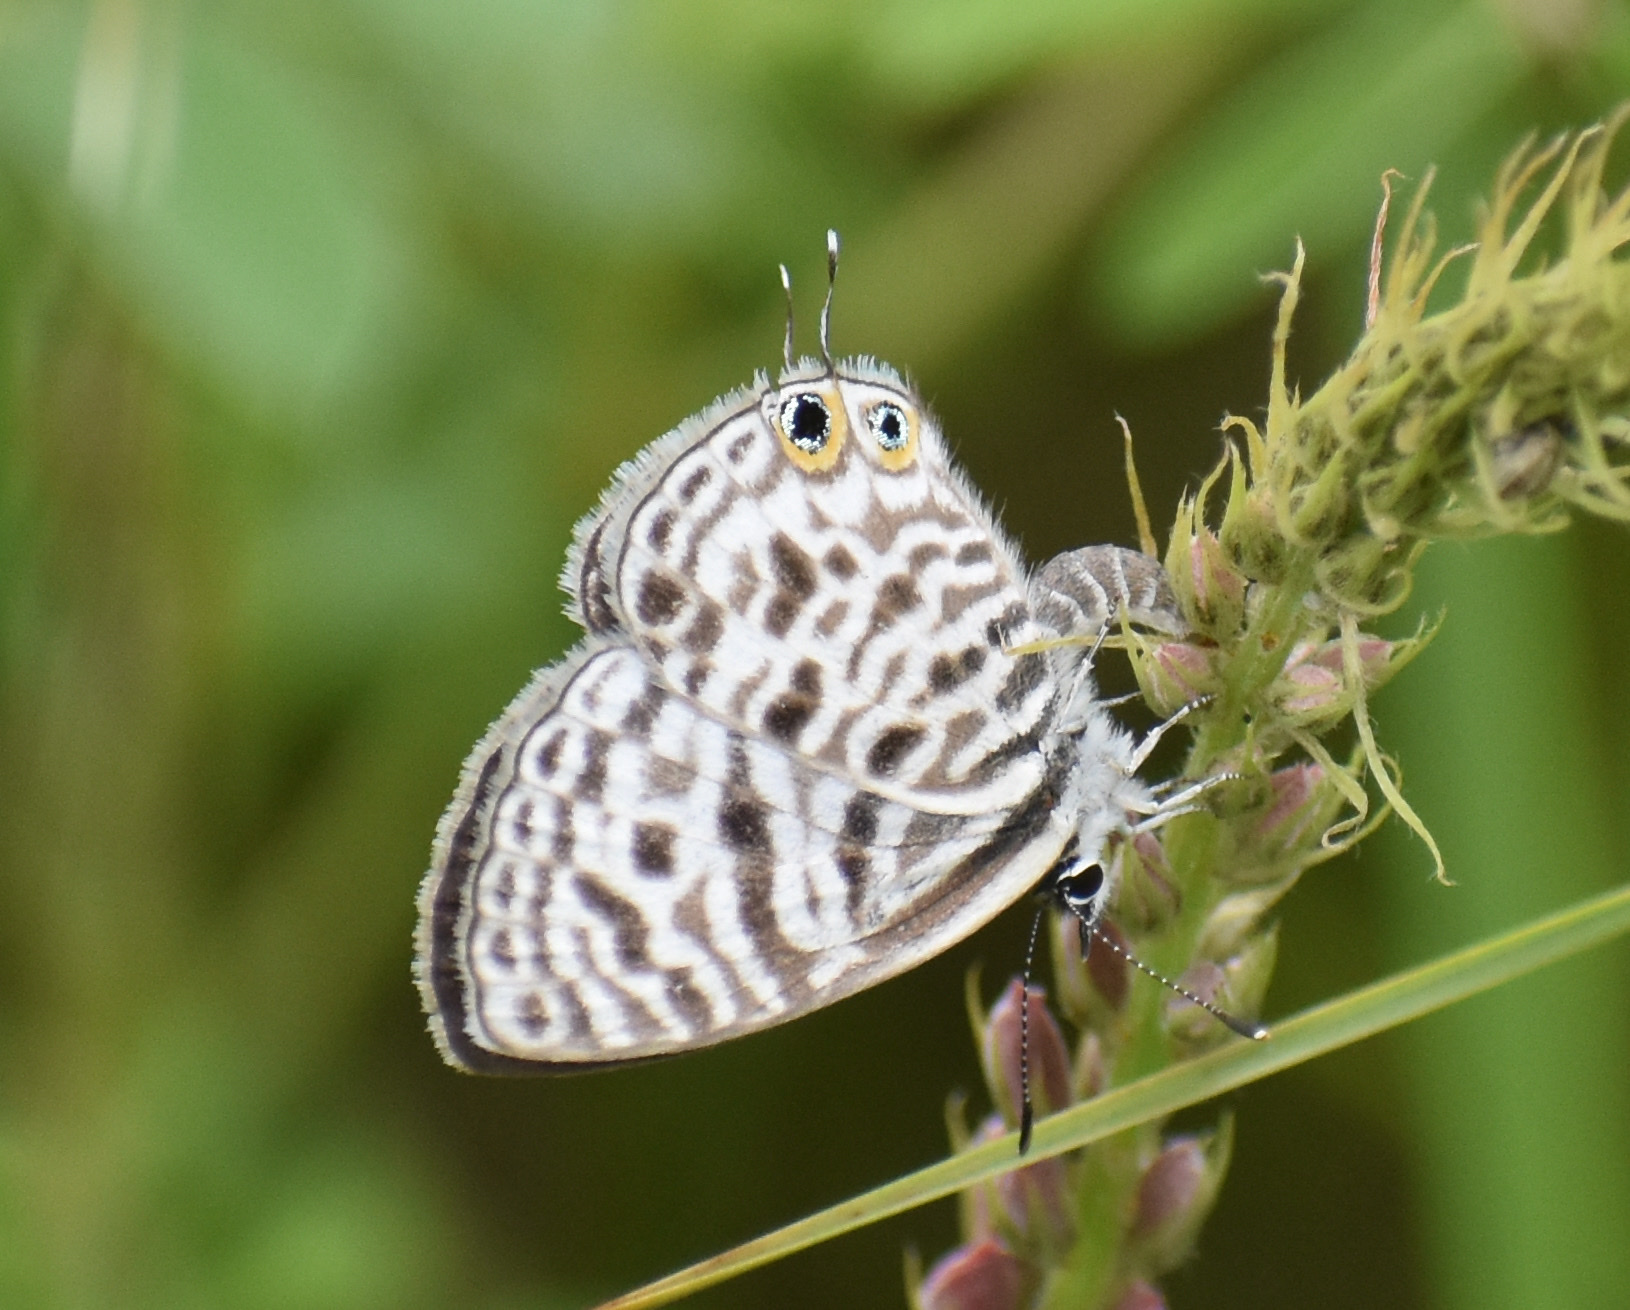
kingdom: Animalia
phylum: Arthropoda
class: Insecta
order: Lepidoptera
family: Lycaenidae
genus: Leptotes
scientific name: Leptotes
